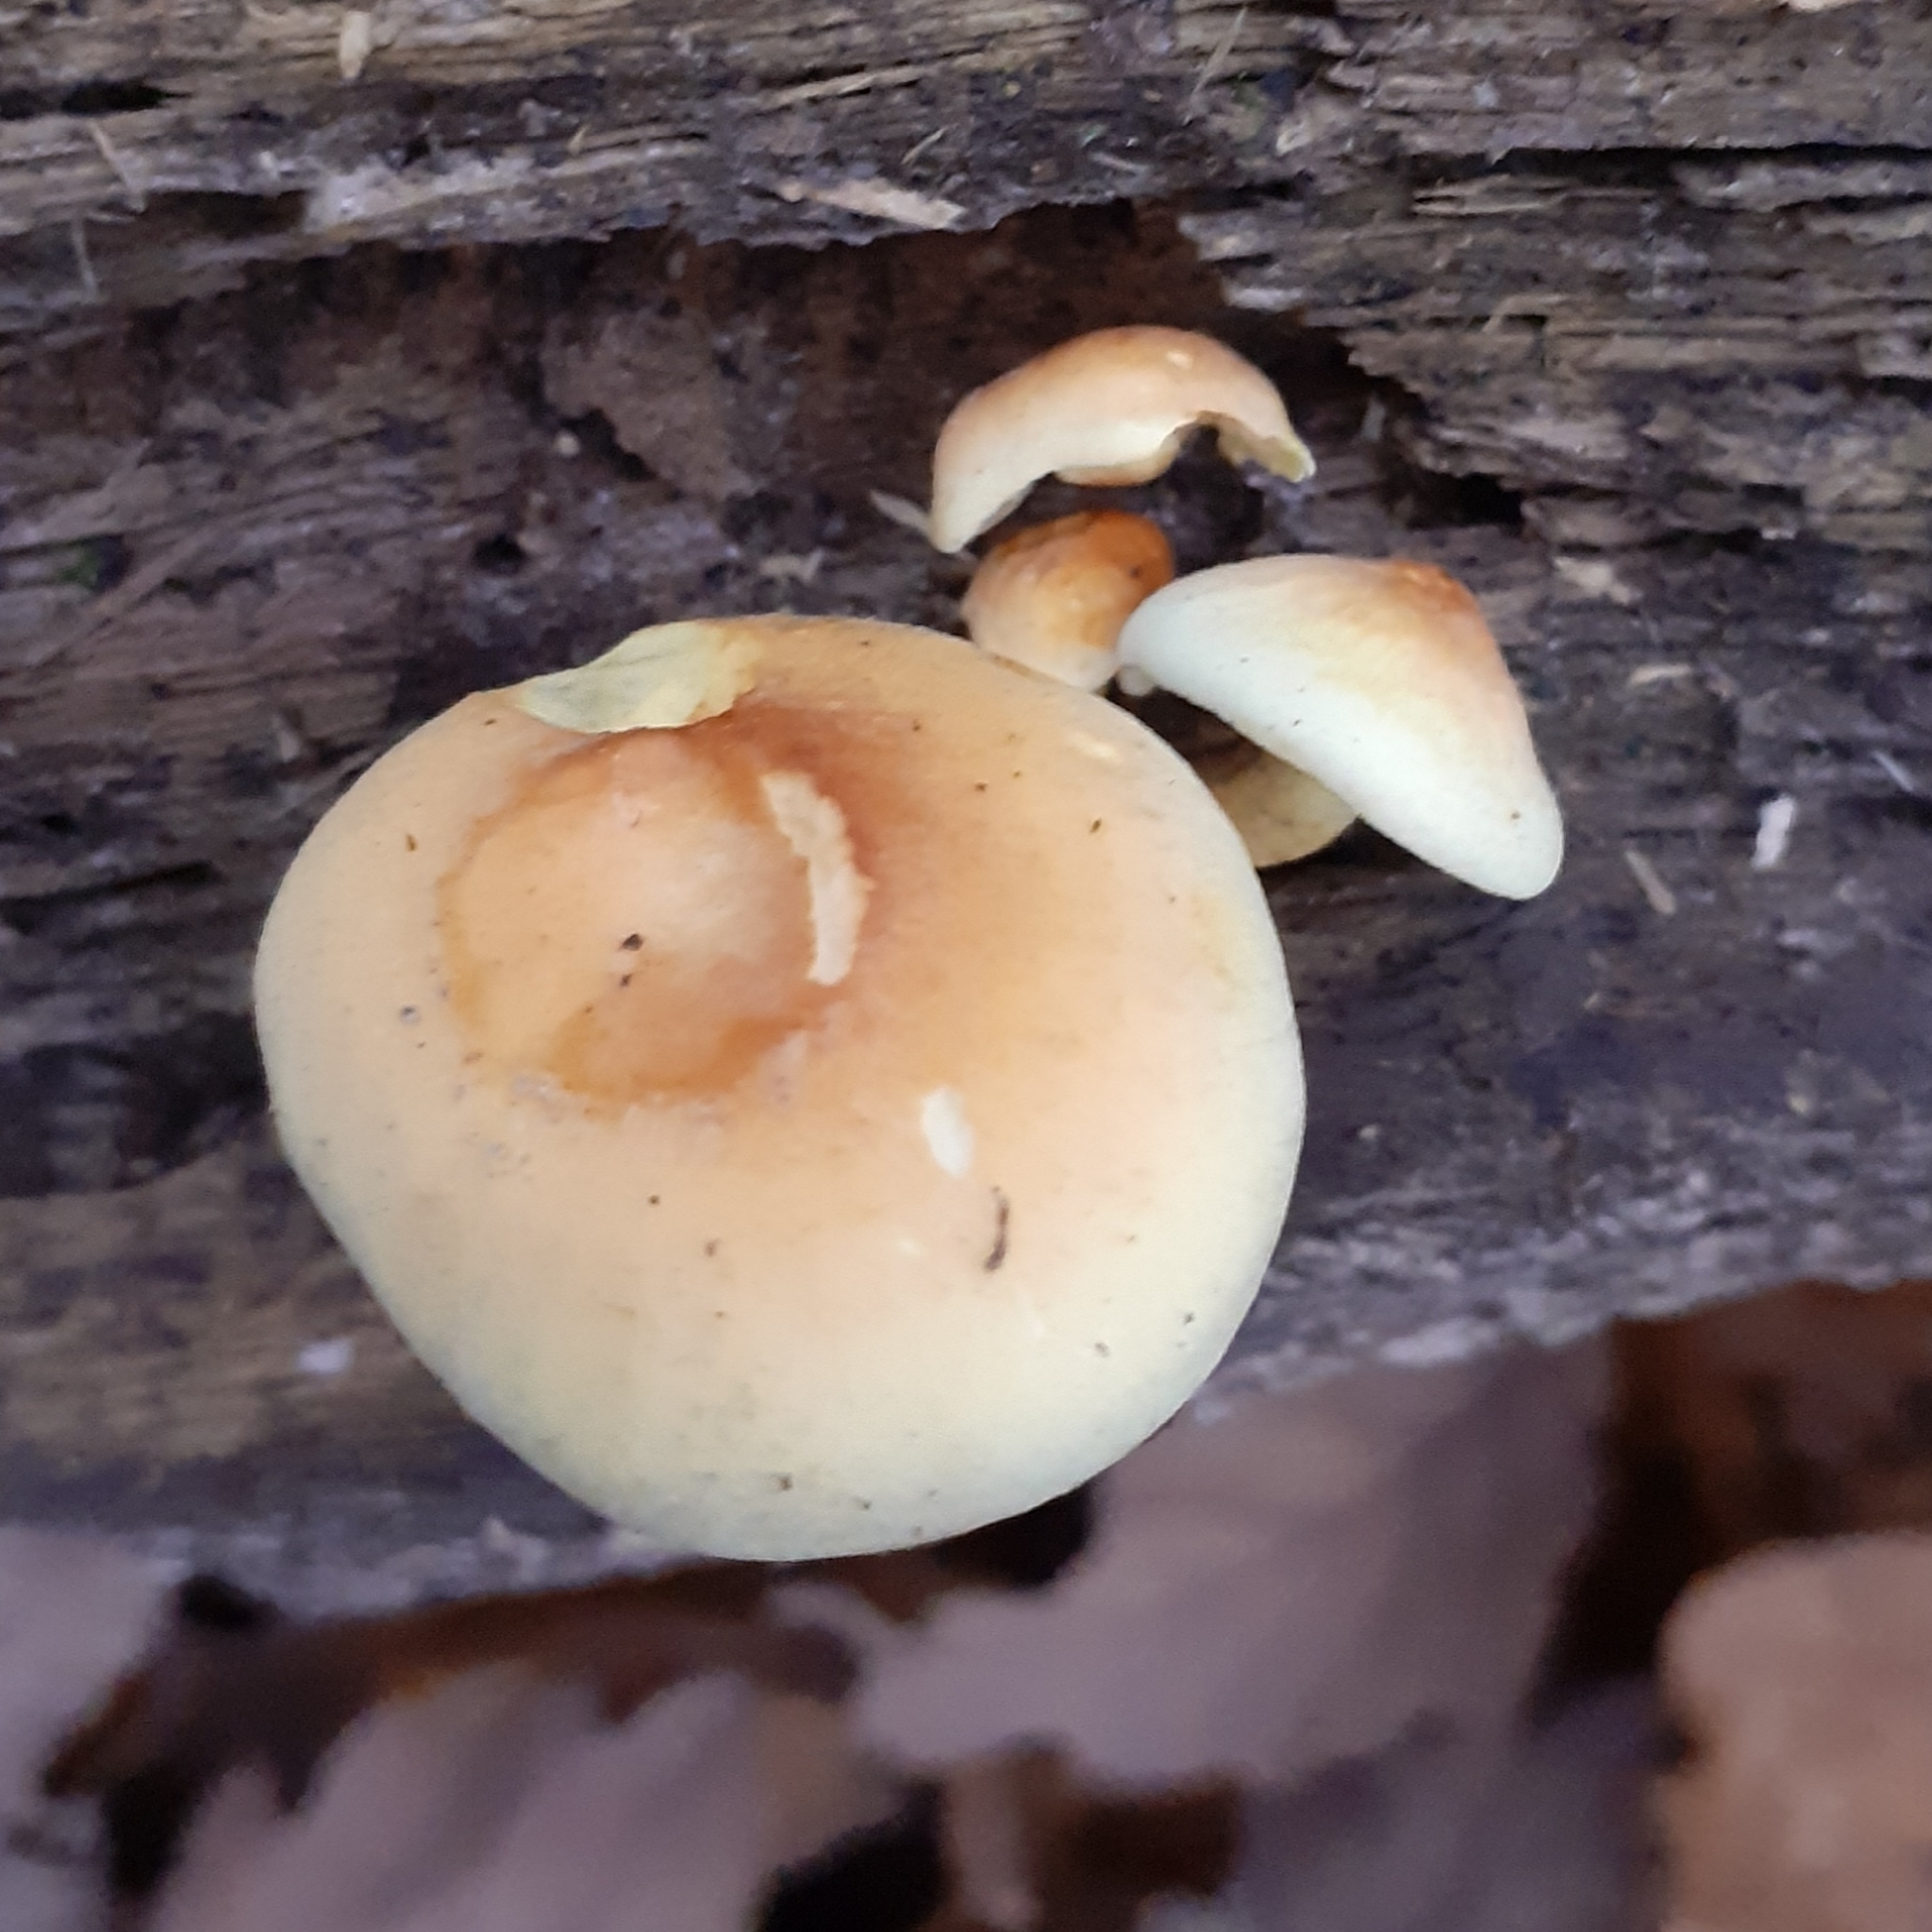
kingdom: Fungi
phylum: Basidiomycota
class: Agaricomycetes
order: Agaricales
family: Strophariaceae
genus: Hypholoma
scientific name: Hypholoma capnoides
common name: Conifer tuft
